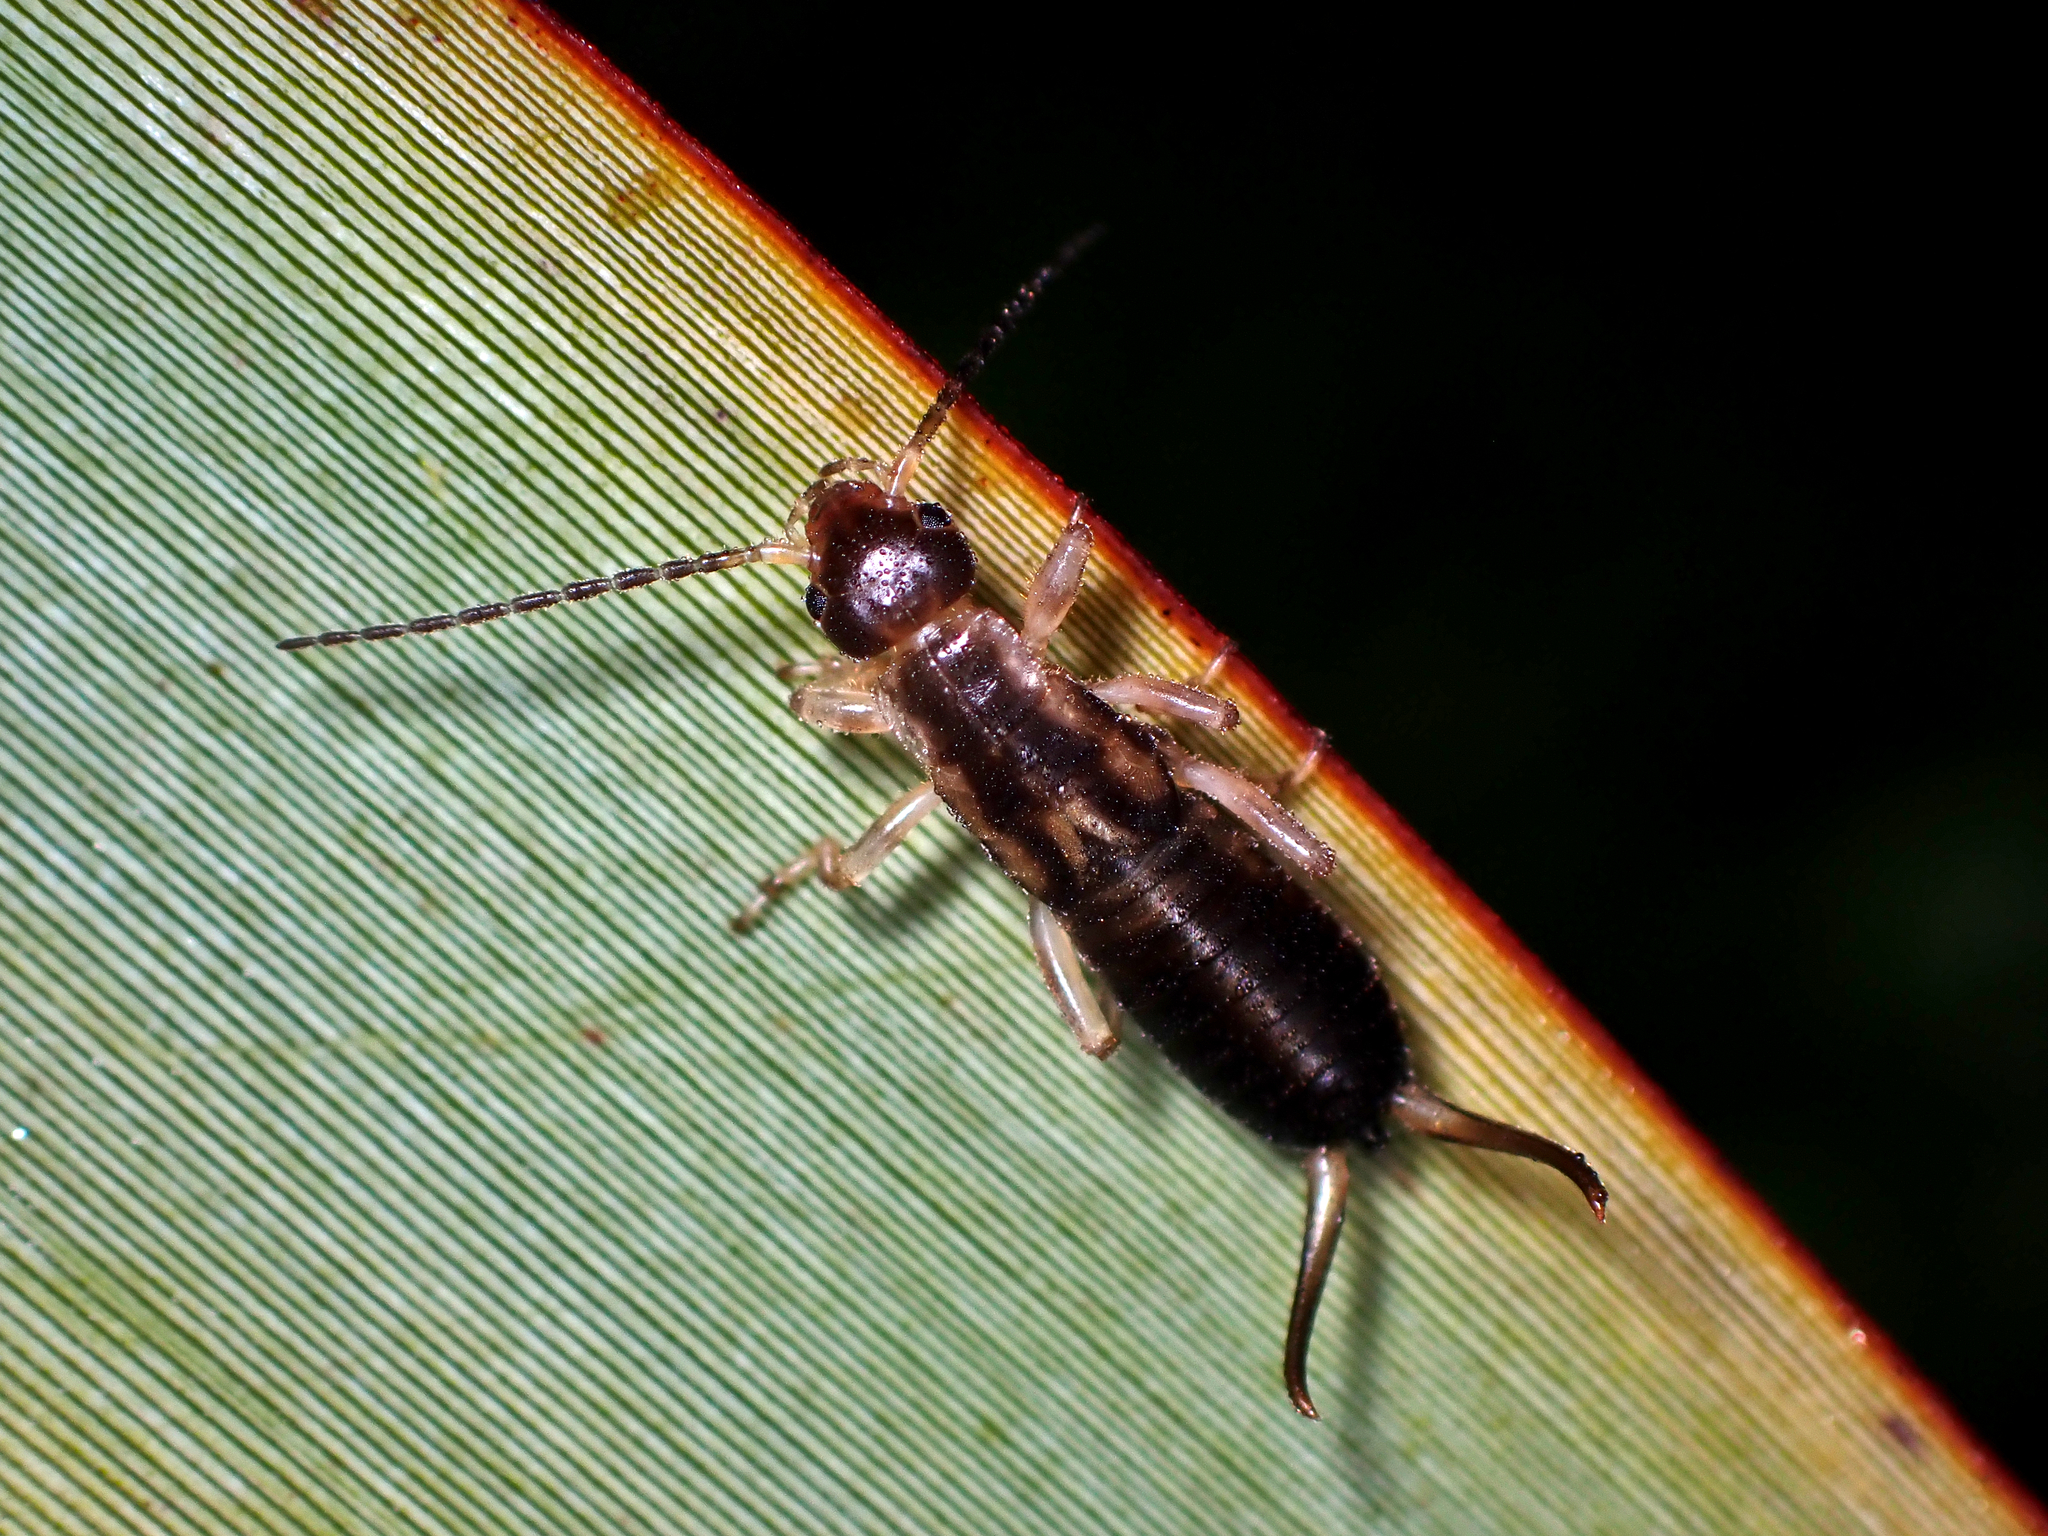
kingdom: Animalia
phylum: Arthropoda
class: Insecta
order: Dermaptera
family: Forficulidae
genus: Forficula
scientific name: Forficula
